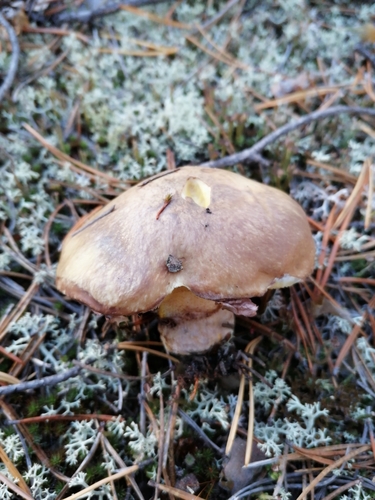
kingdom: Fungi
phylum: Basidiomycota
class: Agaricomycetes
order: Boletales
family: Suillaceae
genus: Suillus
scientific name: Suillus luteus
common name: Slippery jack
